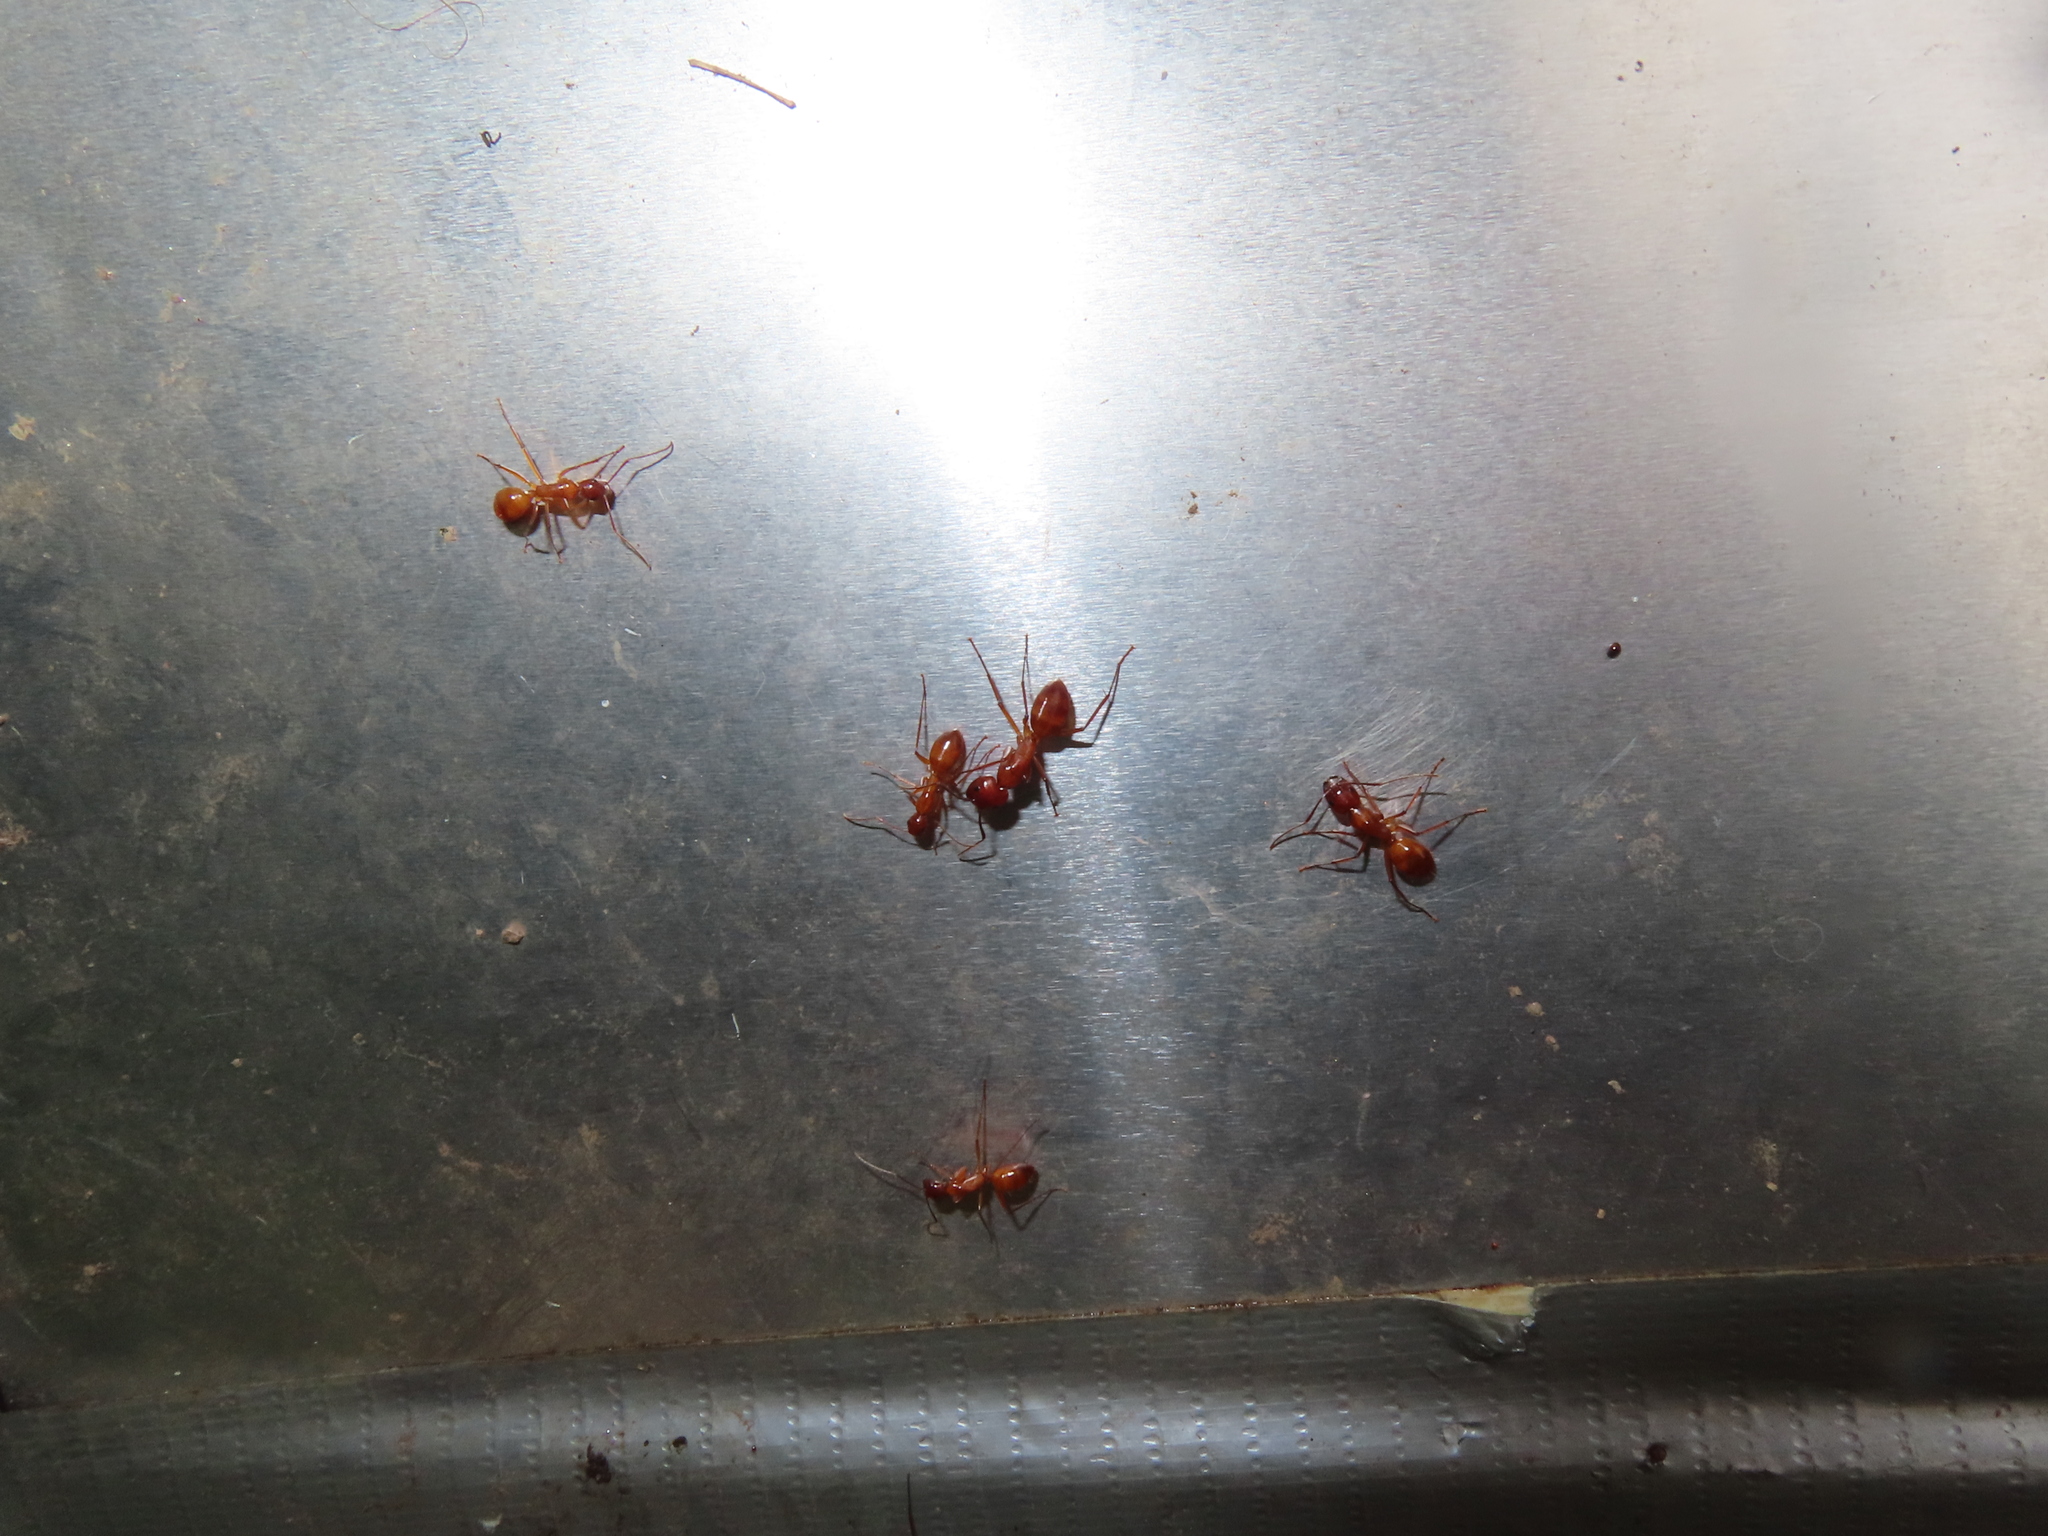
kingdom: Animalia
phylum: Arthropoda
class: Insecta
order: Hymenoptera
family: Formicidae
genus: Camponotus
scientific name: Camponotus castaneus
